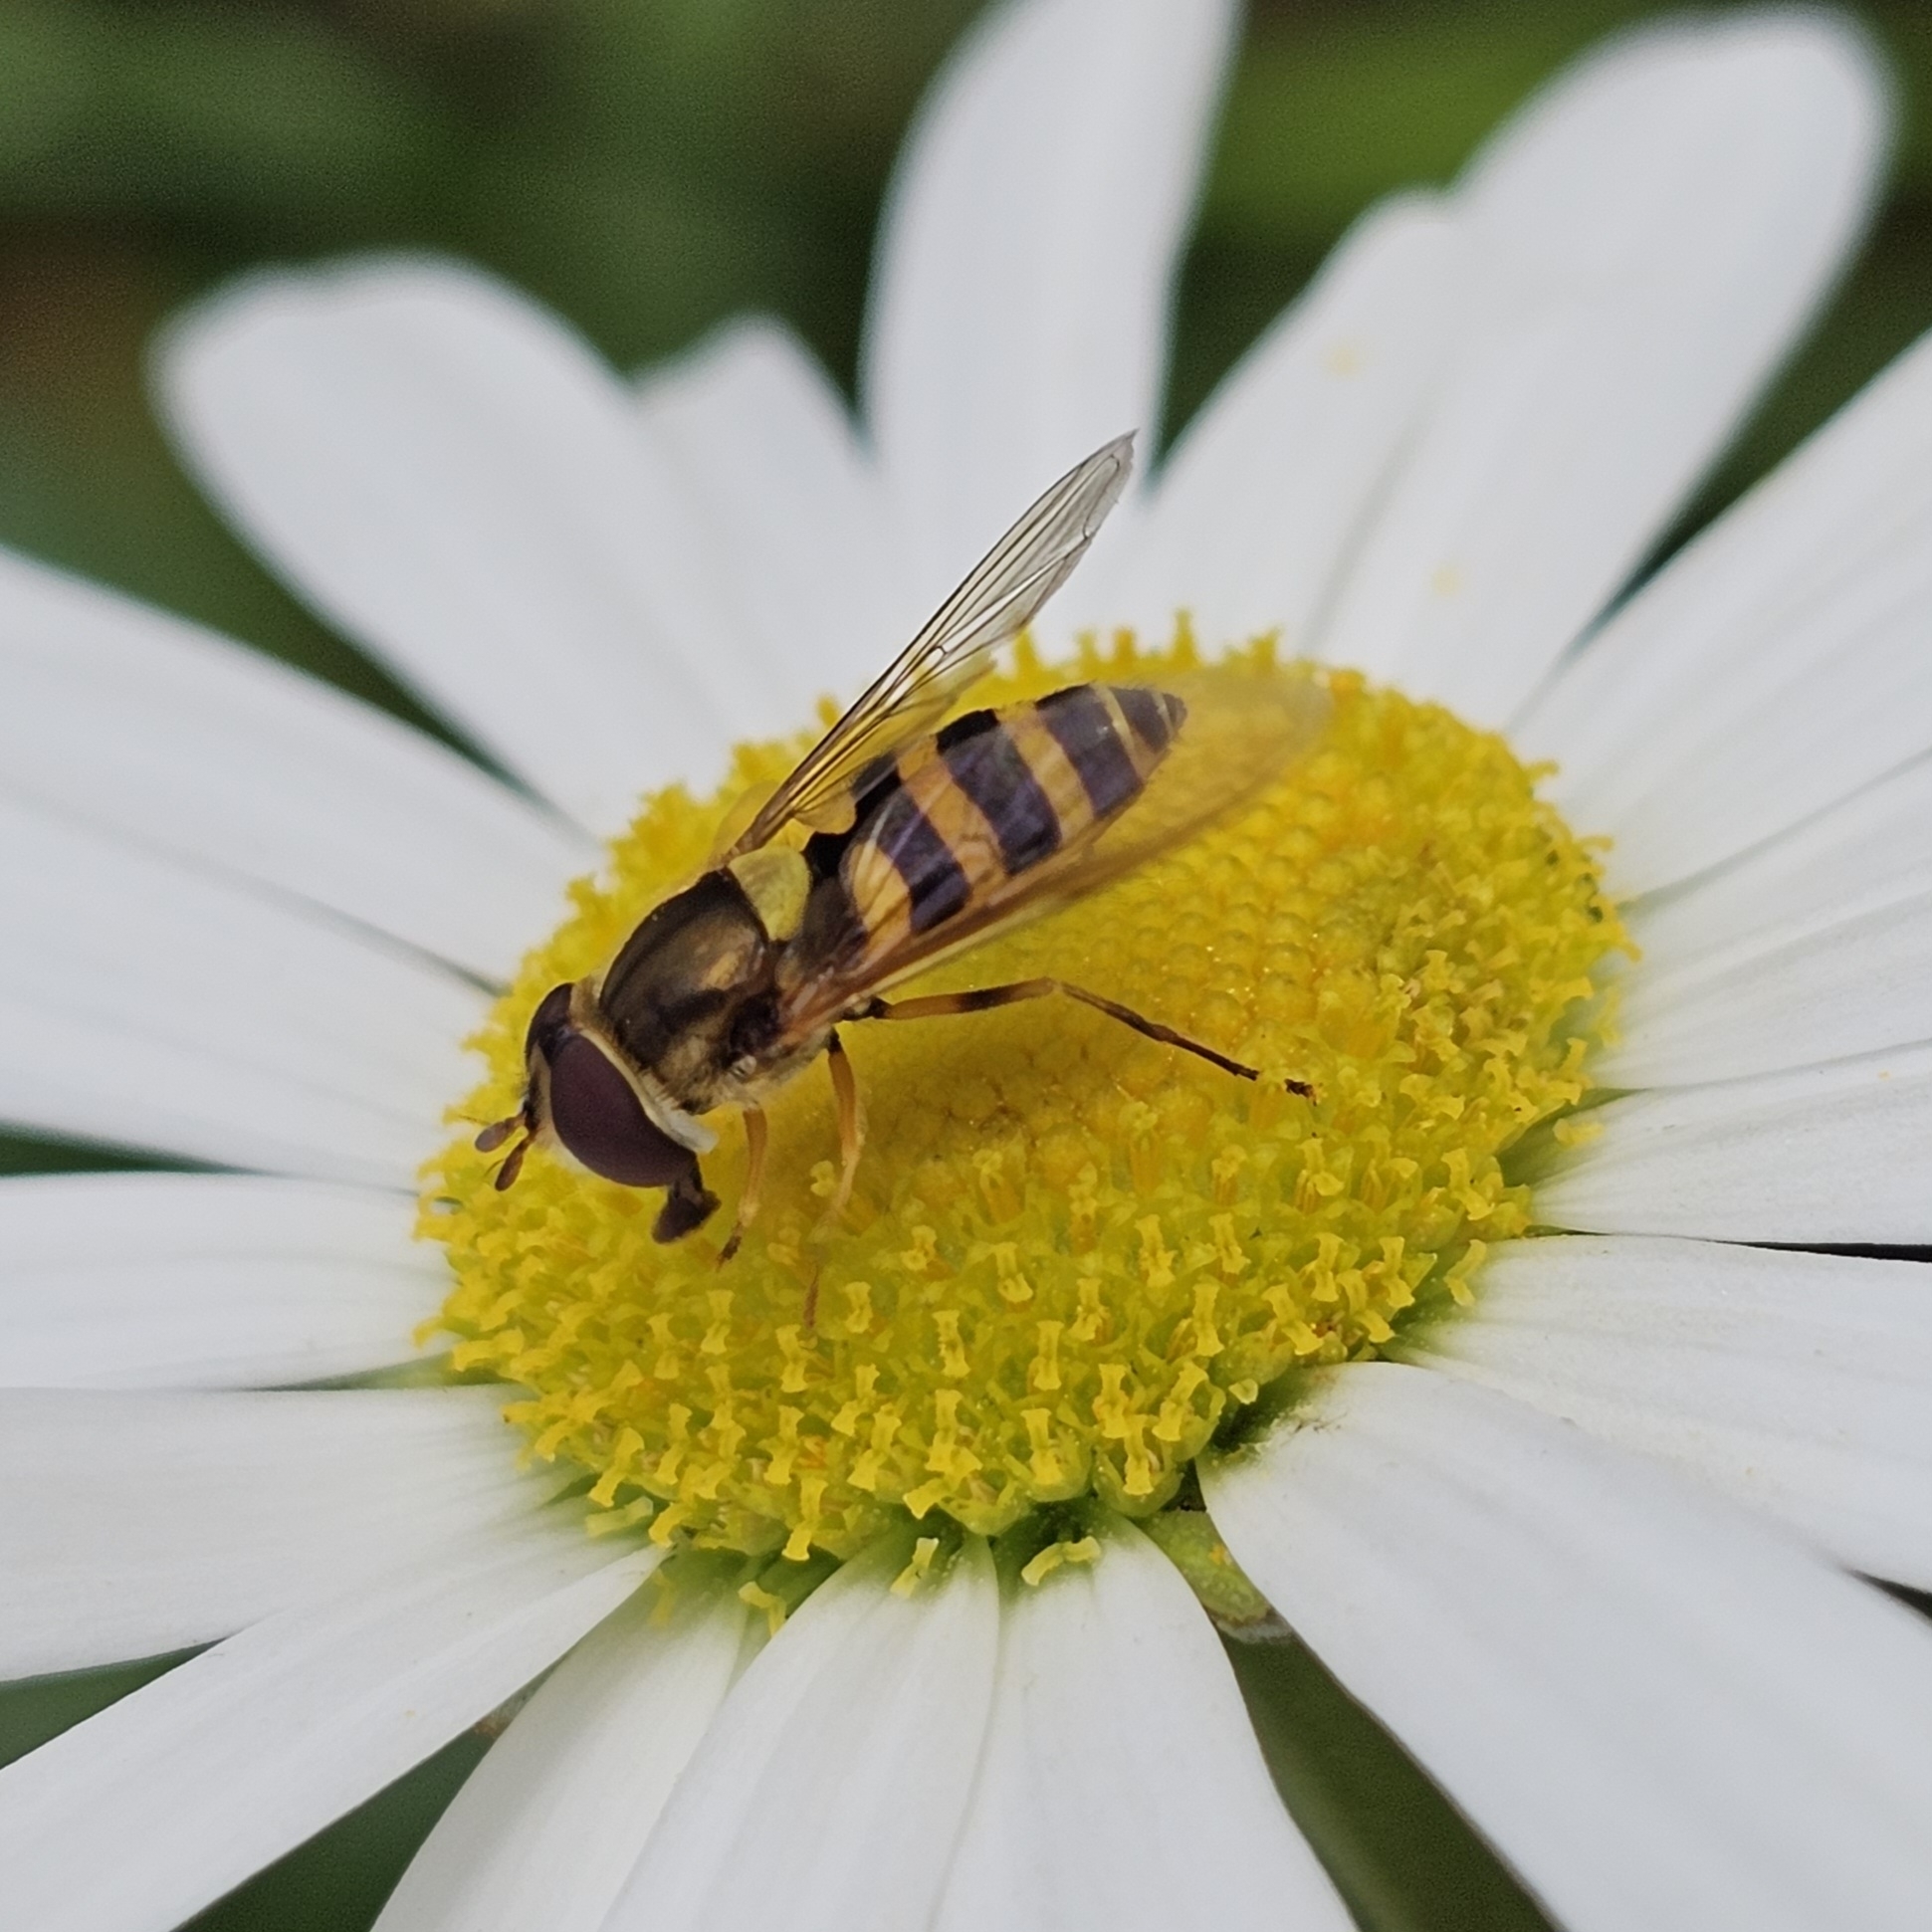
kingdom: Animalia
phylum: Arthropoda
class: Insecta
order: Diptera
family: Syrphidae
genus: Syrphus
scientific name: Syrphus rectus
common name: Yellow-legged flower fly
